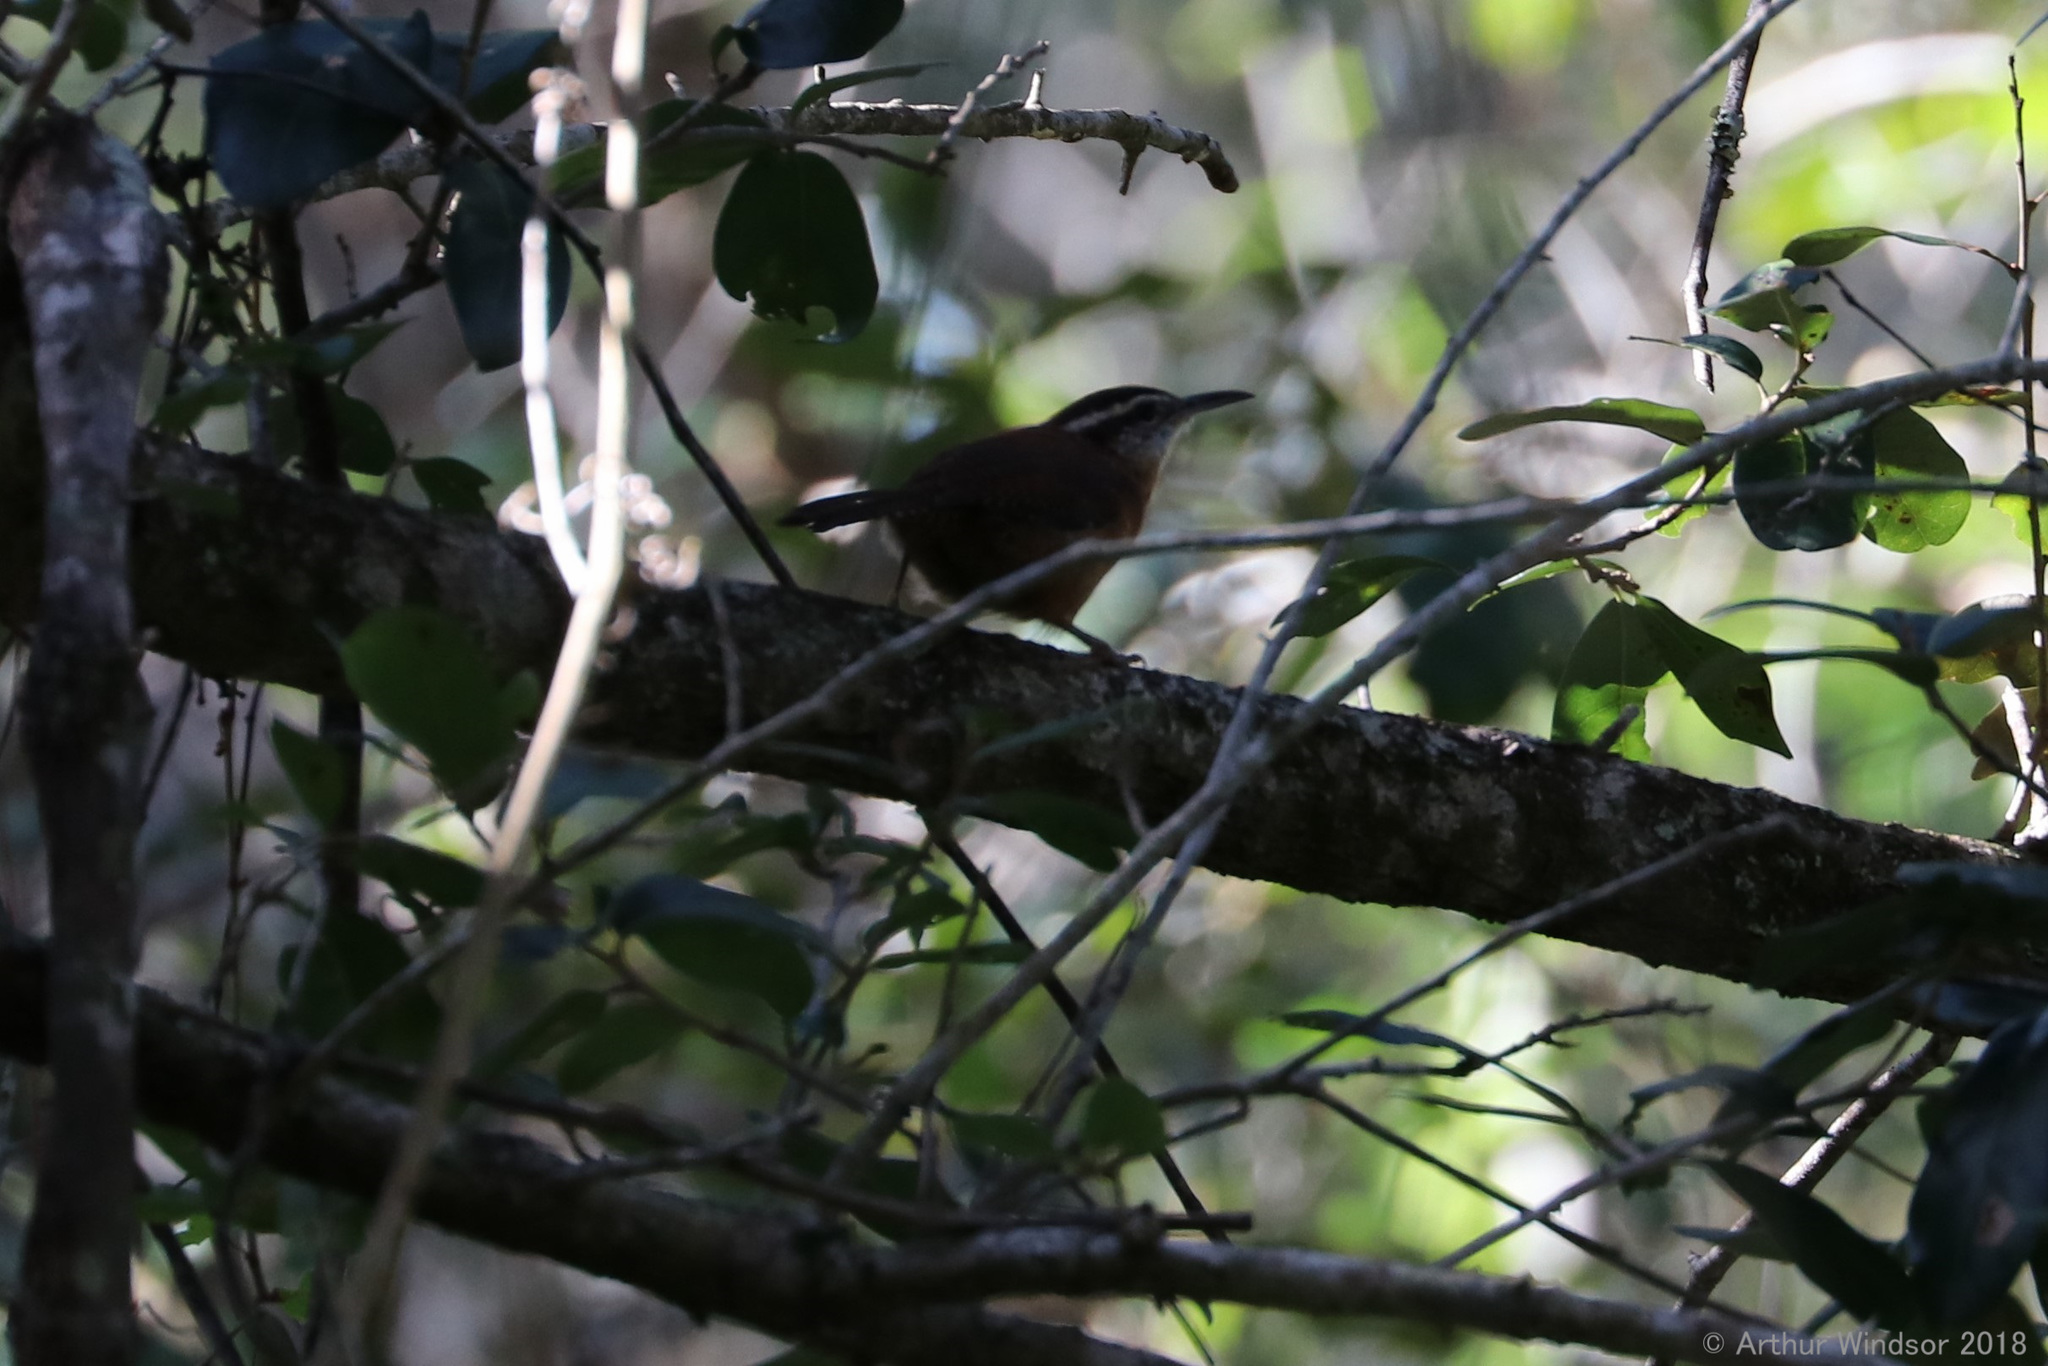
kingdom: Animalia
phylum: Chordata
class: Aves
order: Passeriformes
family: Troglodytidae
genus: Thryothorus
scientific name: Thryothorus ludovicianus
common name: Carolina wren
